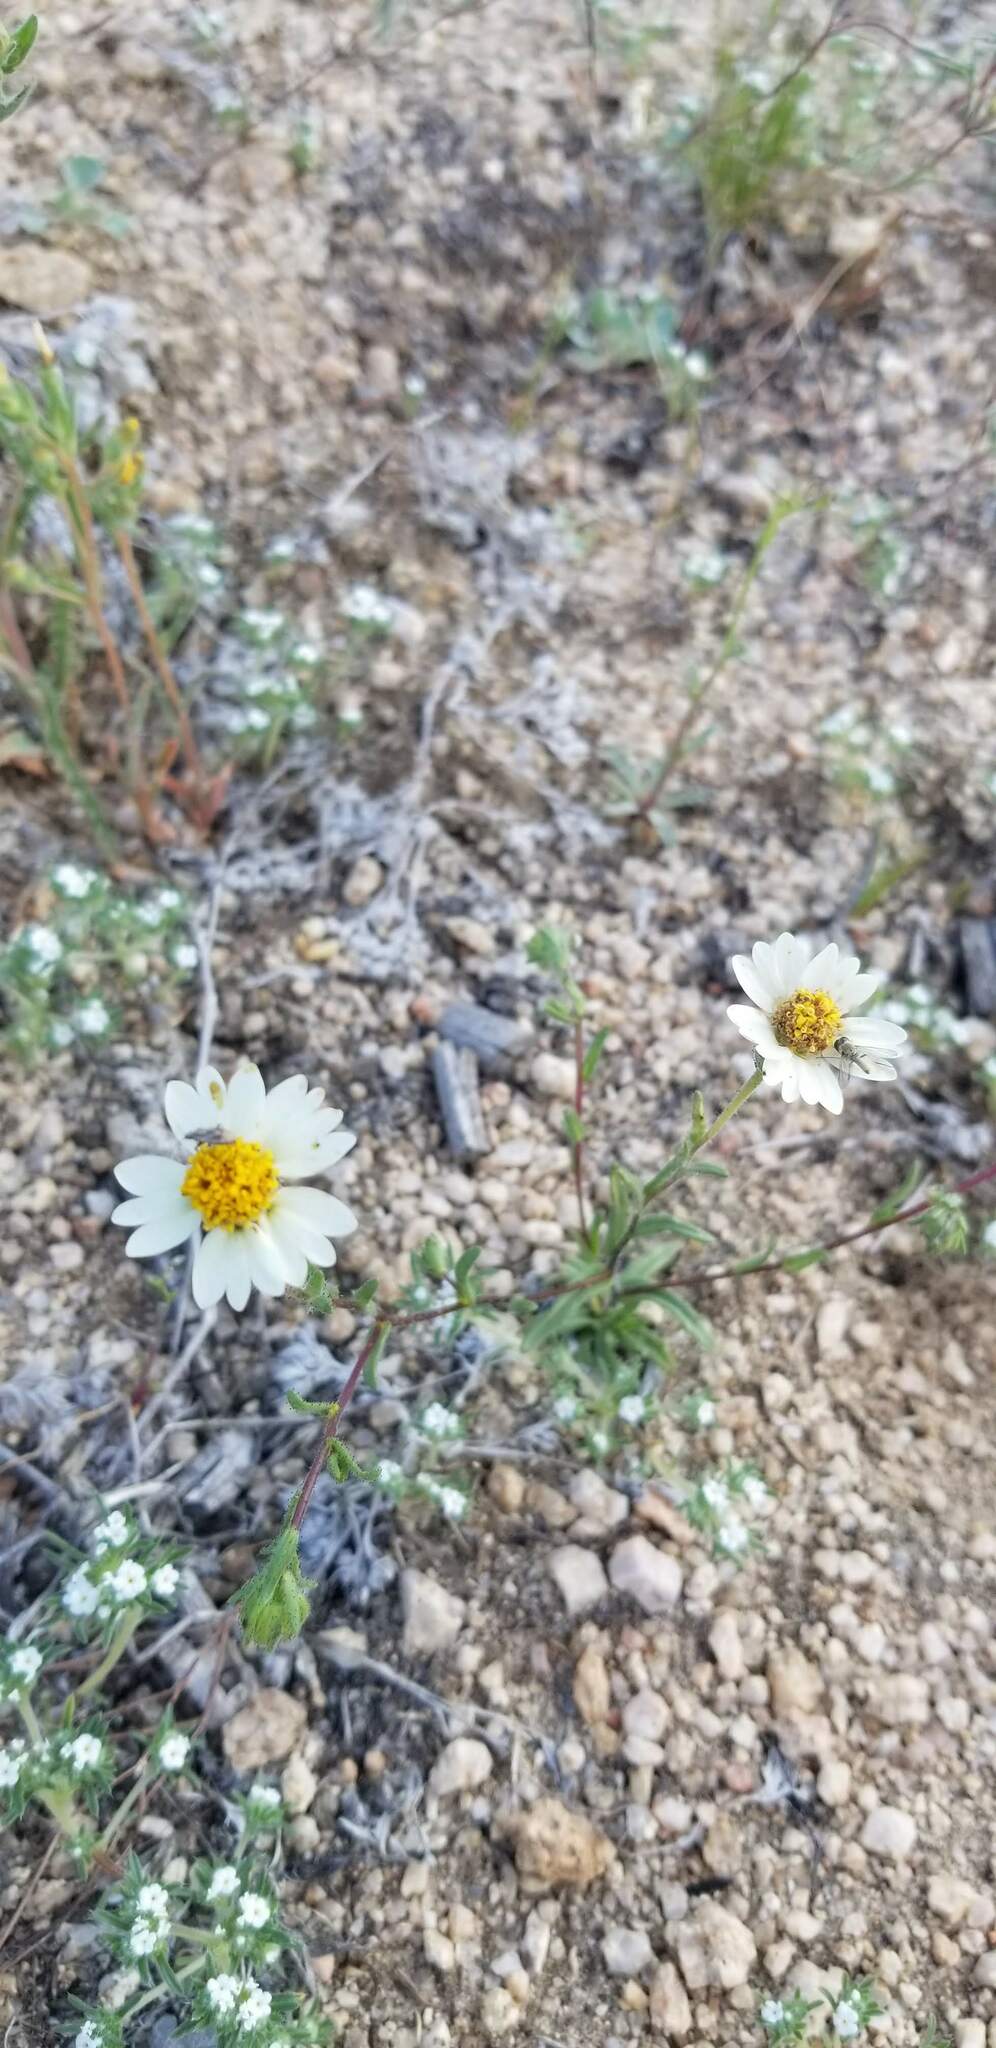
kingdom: Plantae
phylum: Tracheophyta
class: Magnoliopsida
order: Asterales
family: Asteraceae
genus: Layia
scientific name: Layia glandulosa
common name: White layia
